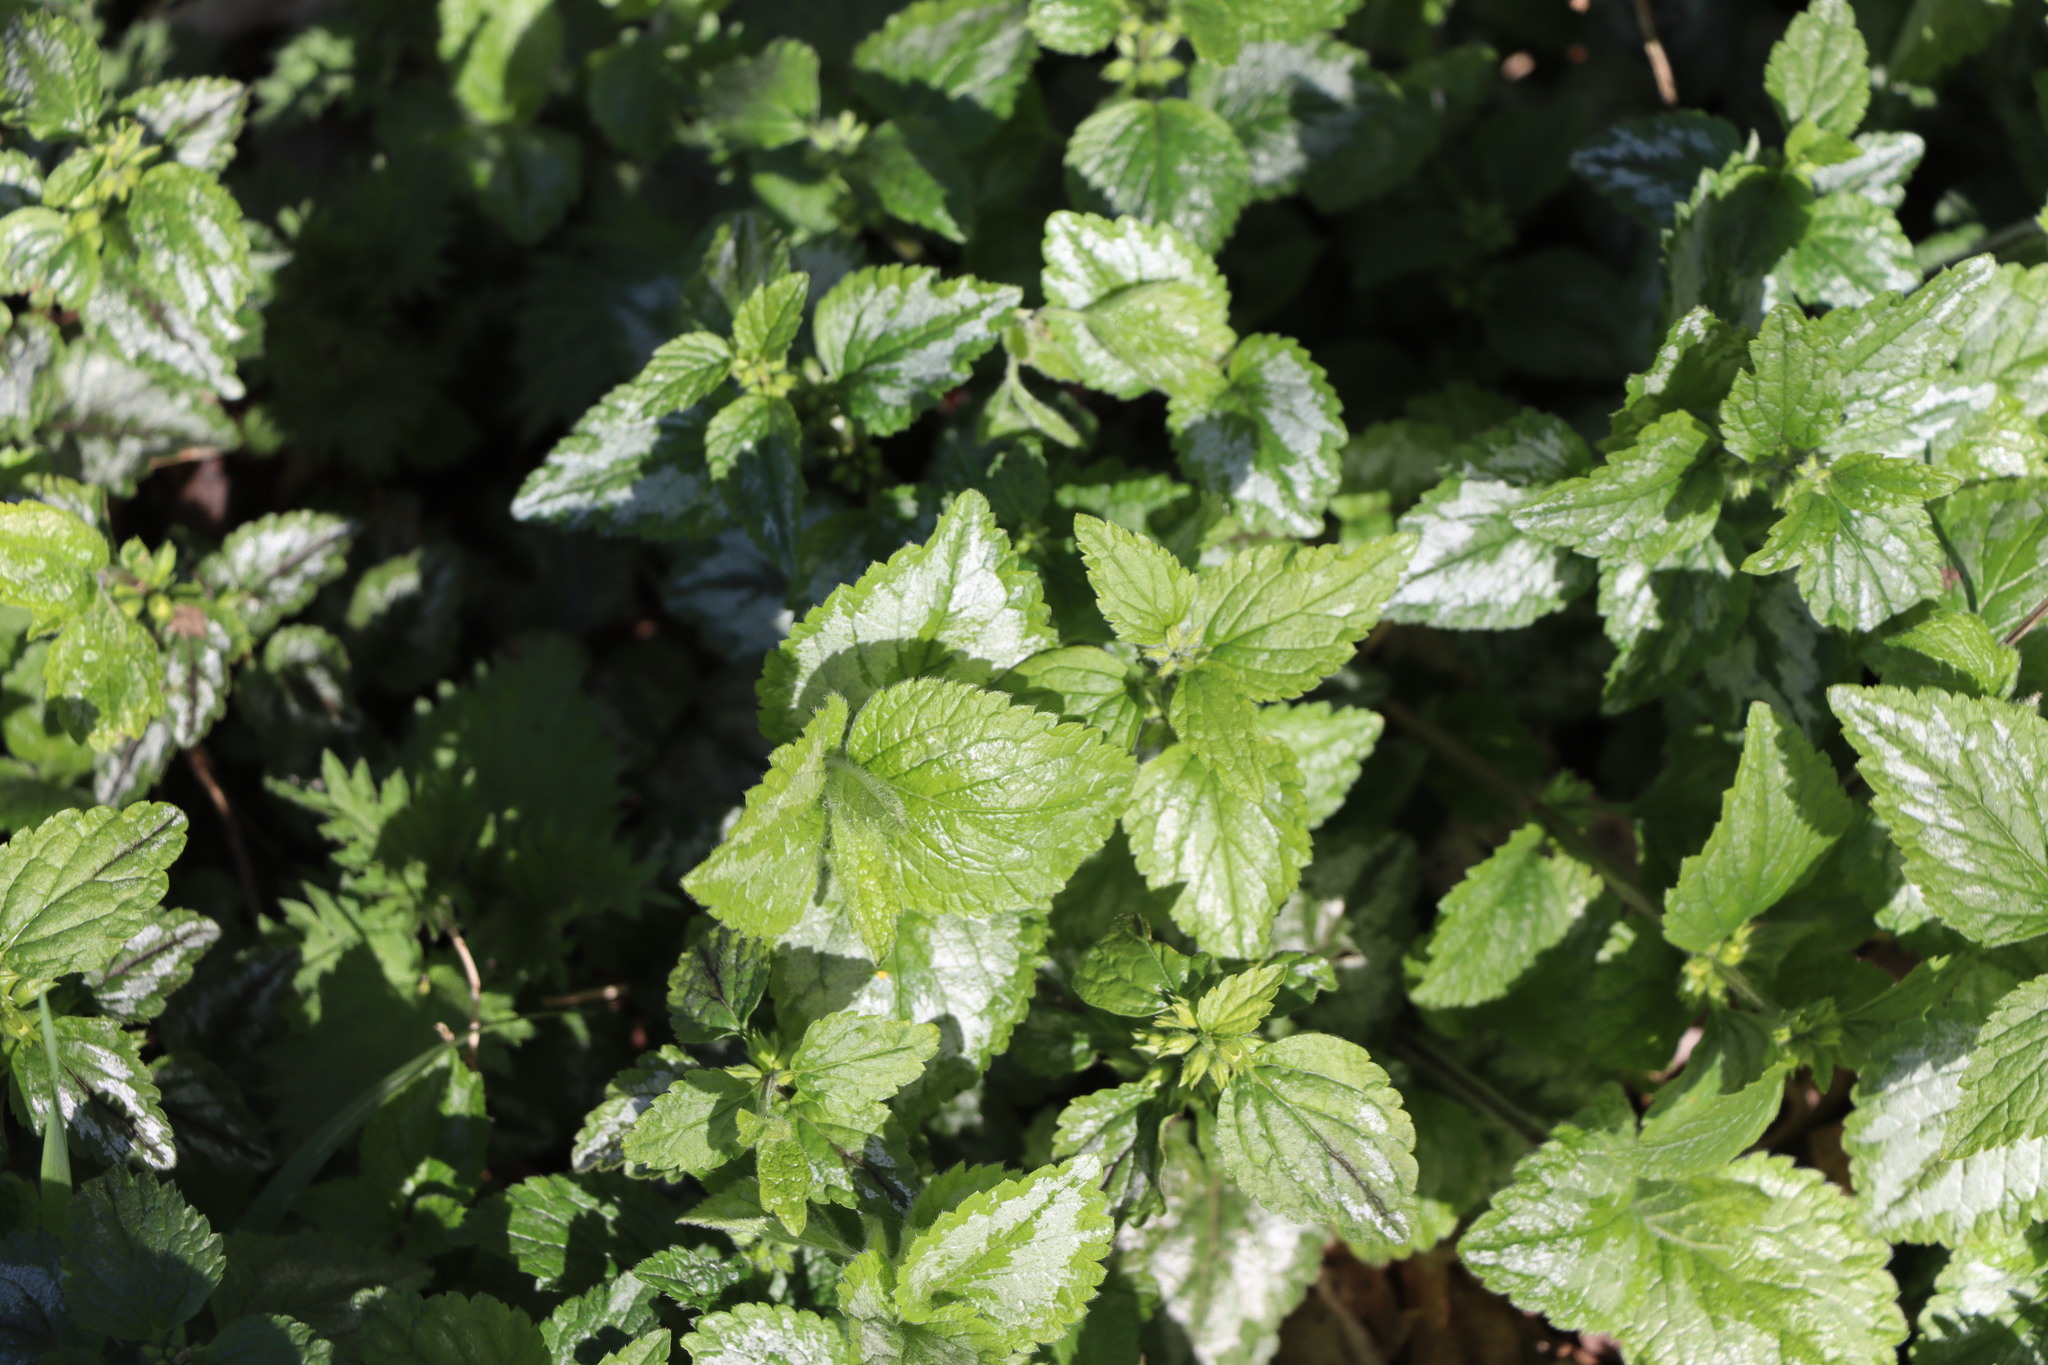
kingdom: Plantae
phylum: Tracheophyta
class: Magnoliopsida
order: Lamiales
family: Lamiaceae
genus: Lamium
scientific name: Lamium galeobdolon
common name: Yellow archangel
